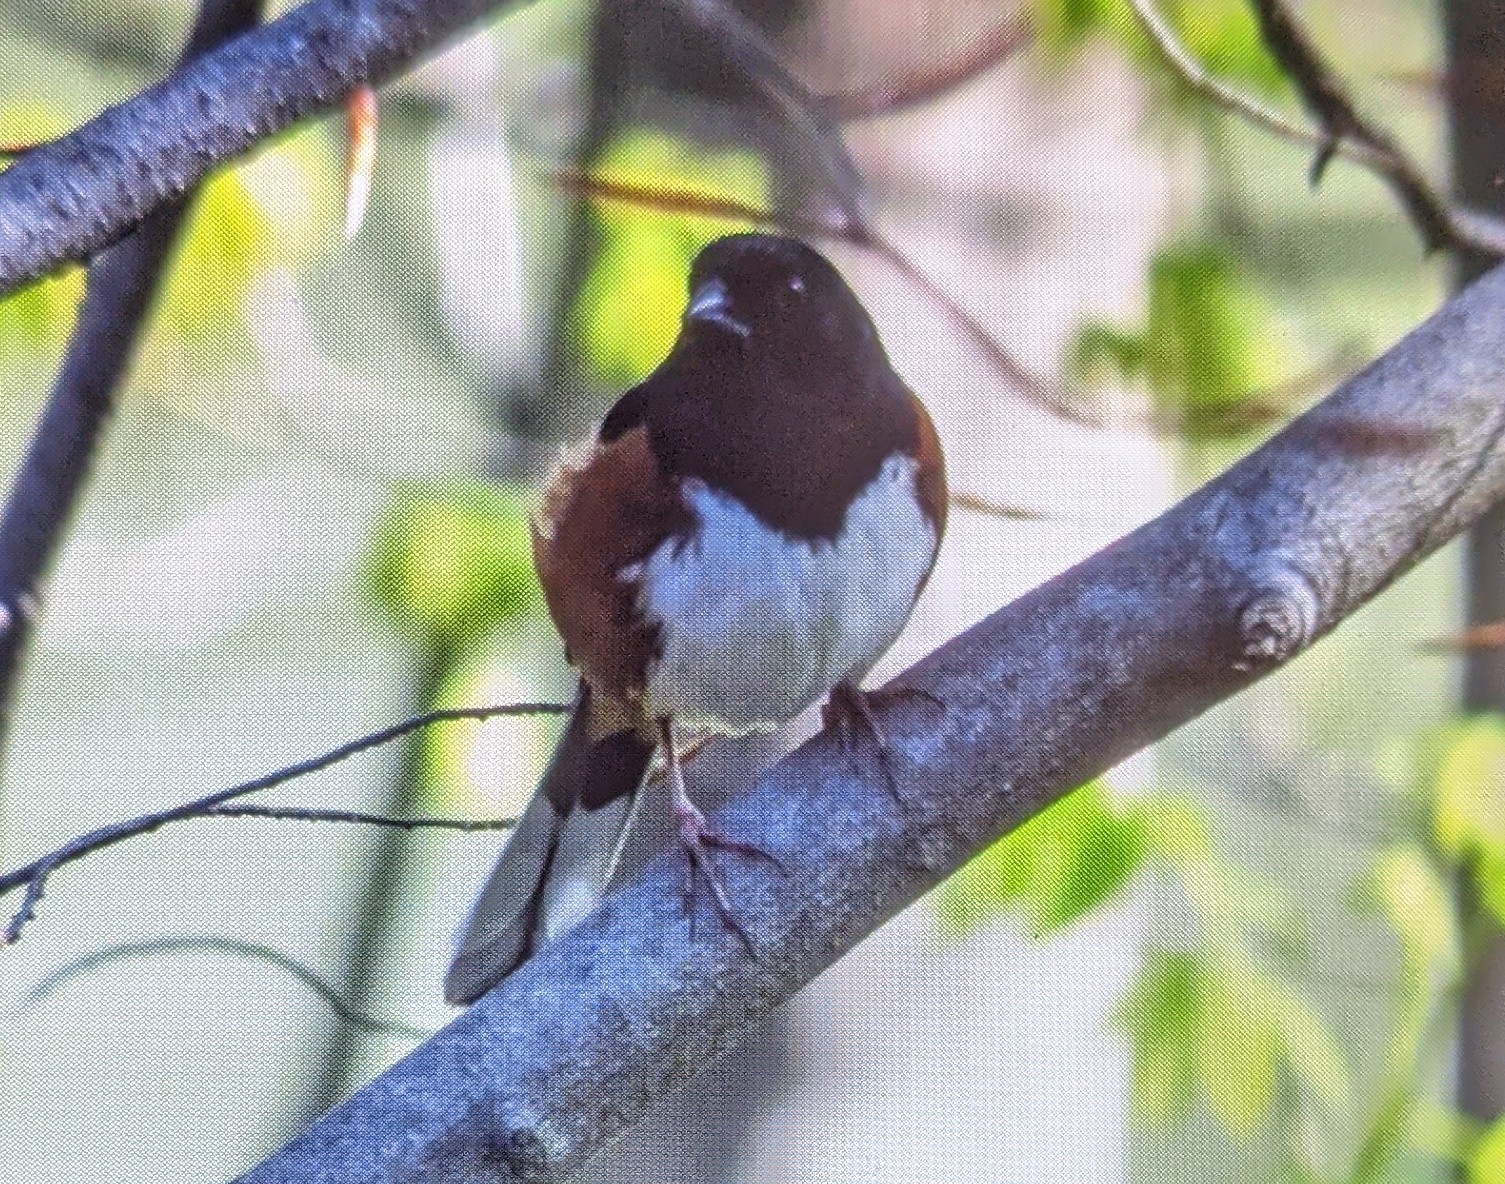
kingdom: Animalia
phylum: Chordata
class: Aves
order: Passeriformes
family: Passerellidae
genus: Pipilo
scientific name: Pipilo erythrophthalmus
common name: Eastern towhee
